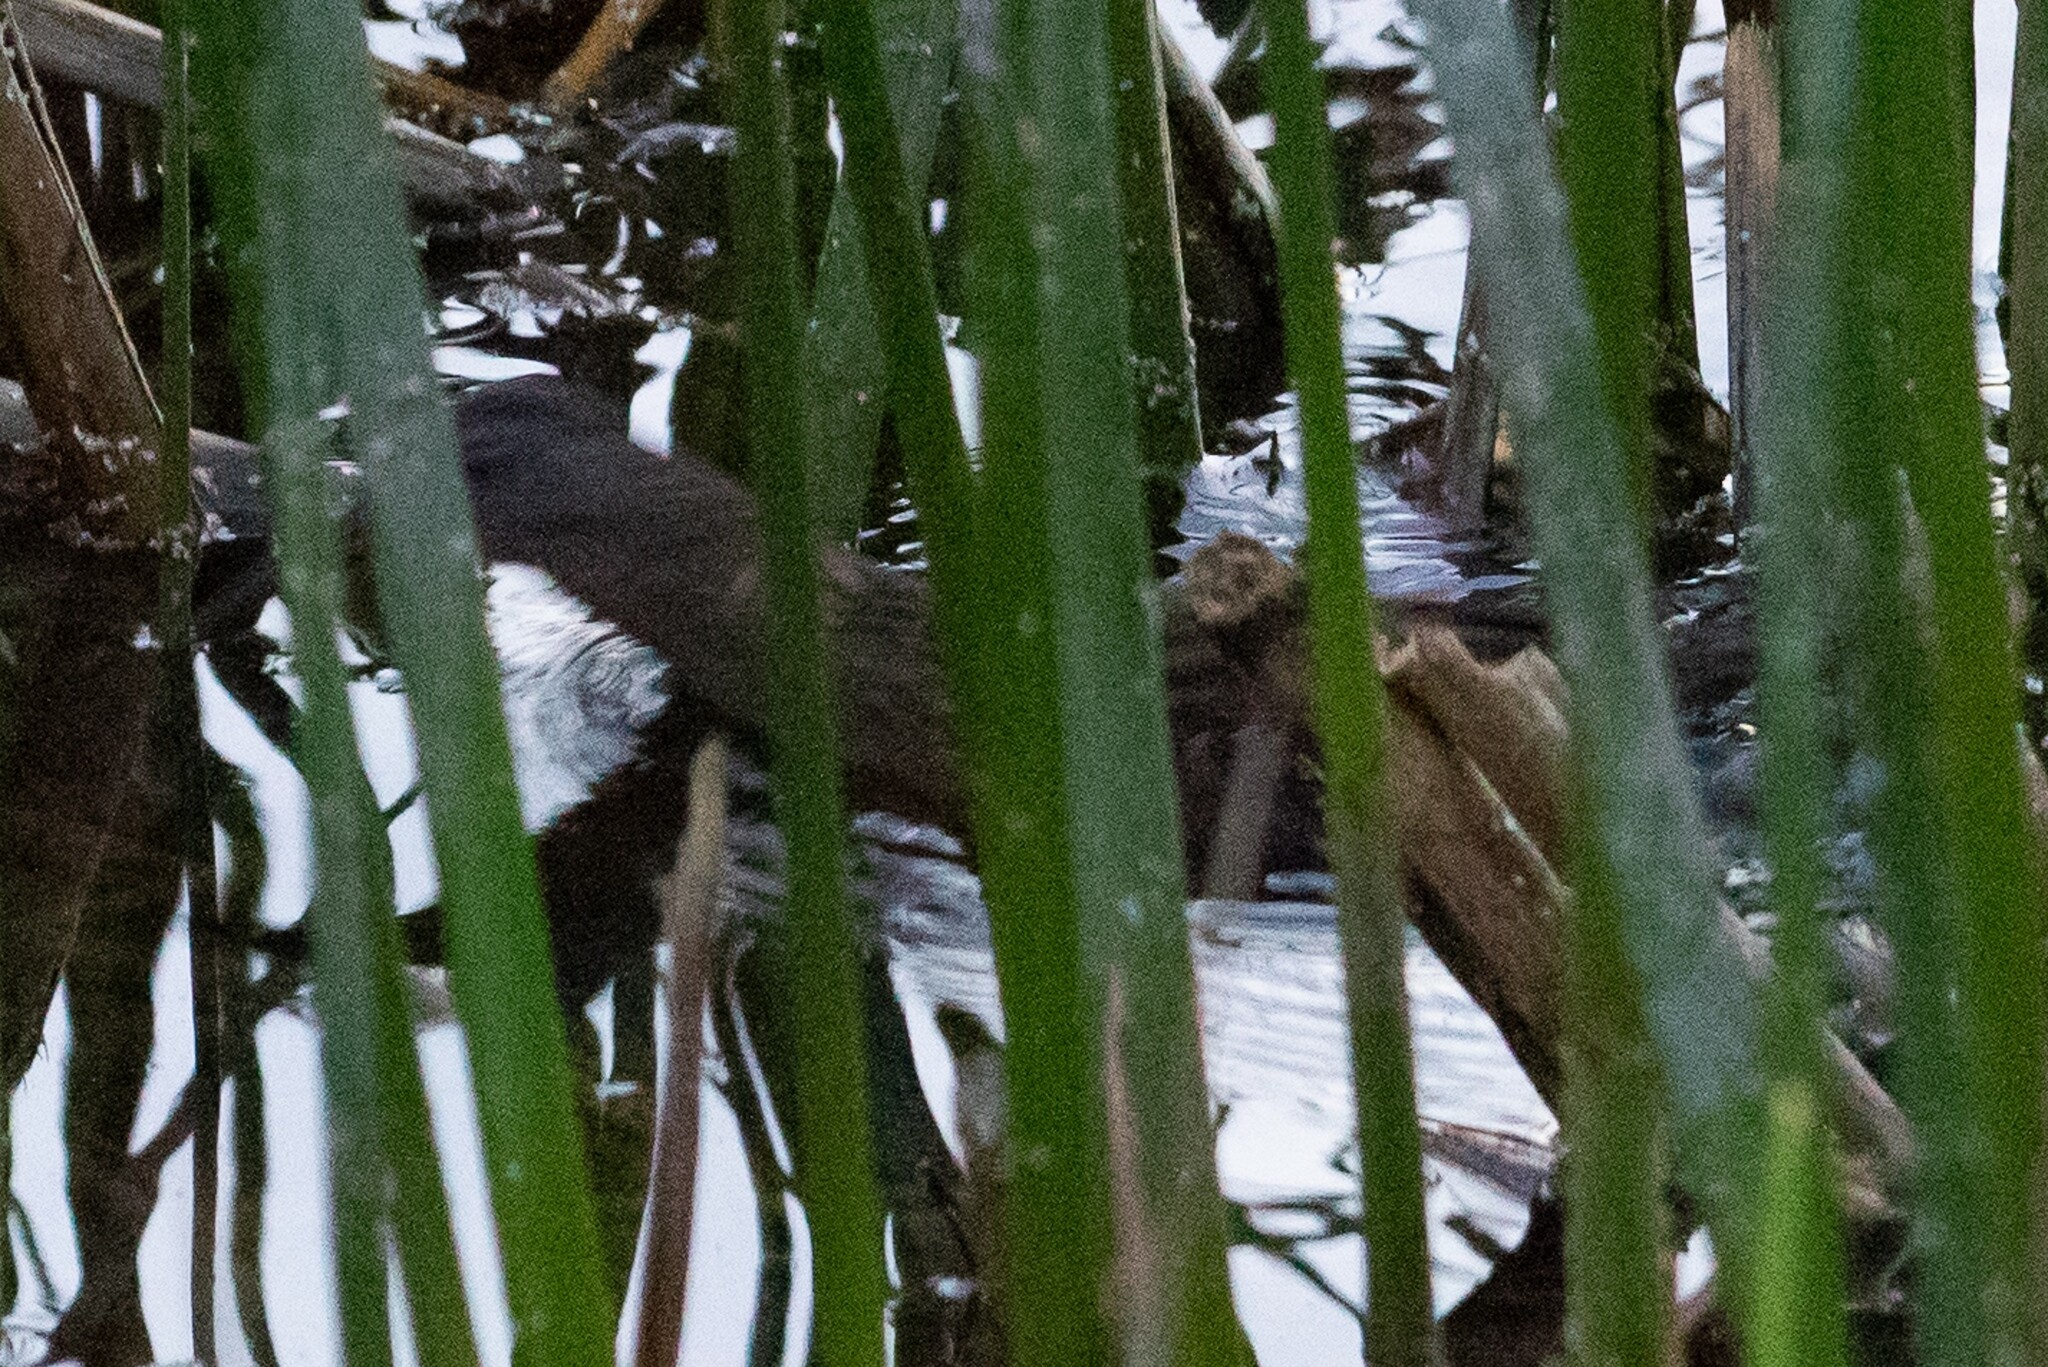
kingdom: Animalia
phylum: Chordata
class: Aves
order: Gruiformes
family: Rallidae
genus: Rallus
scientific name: Rallus limicola
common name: Virginia rail
